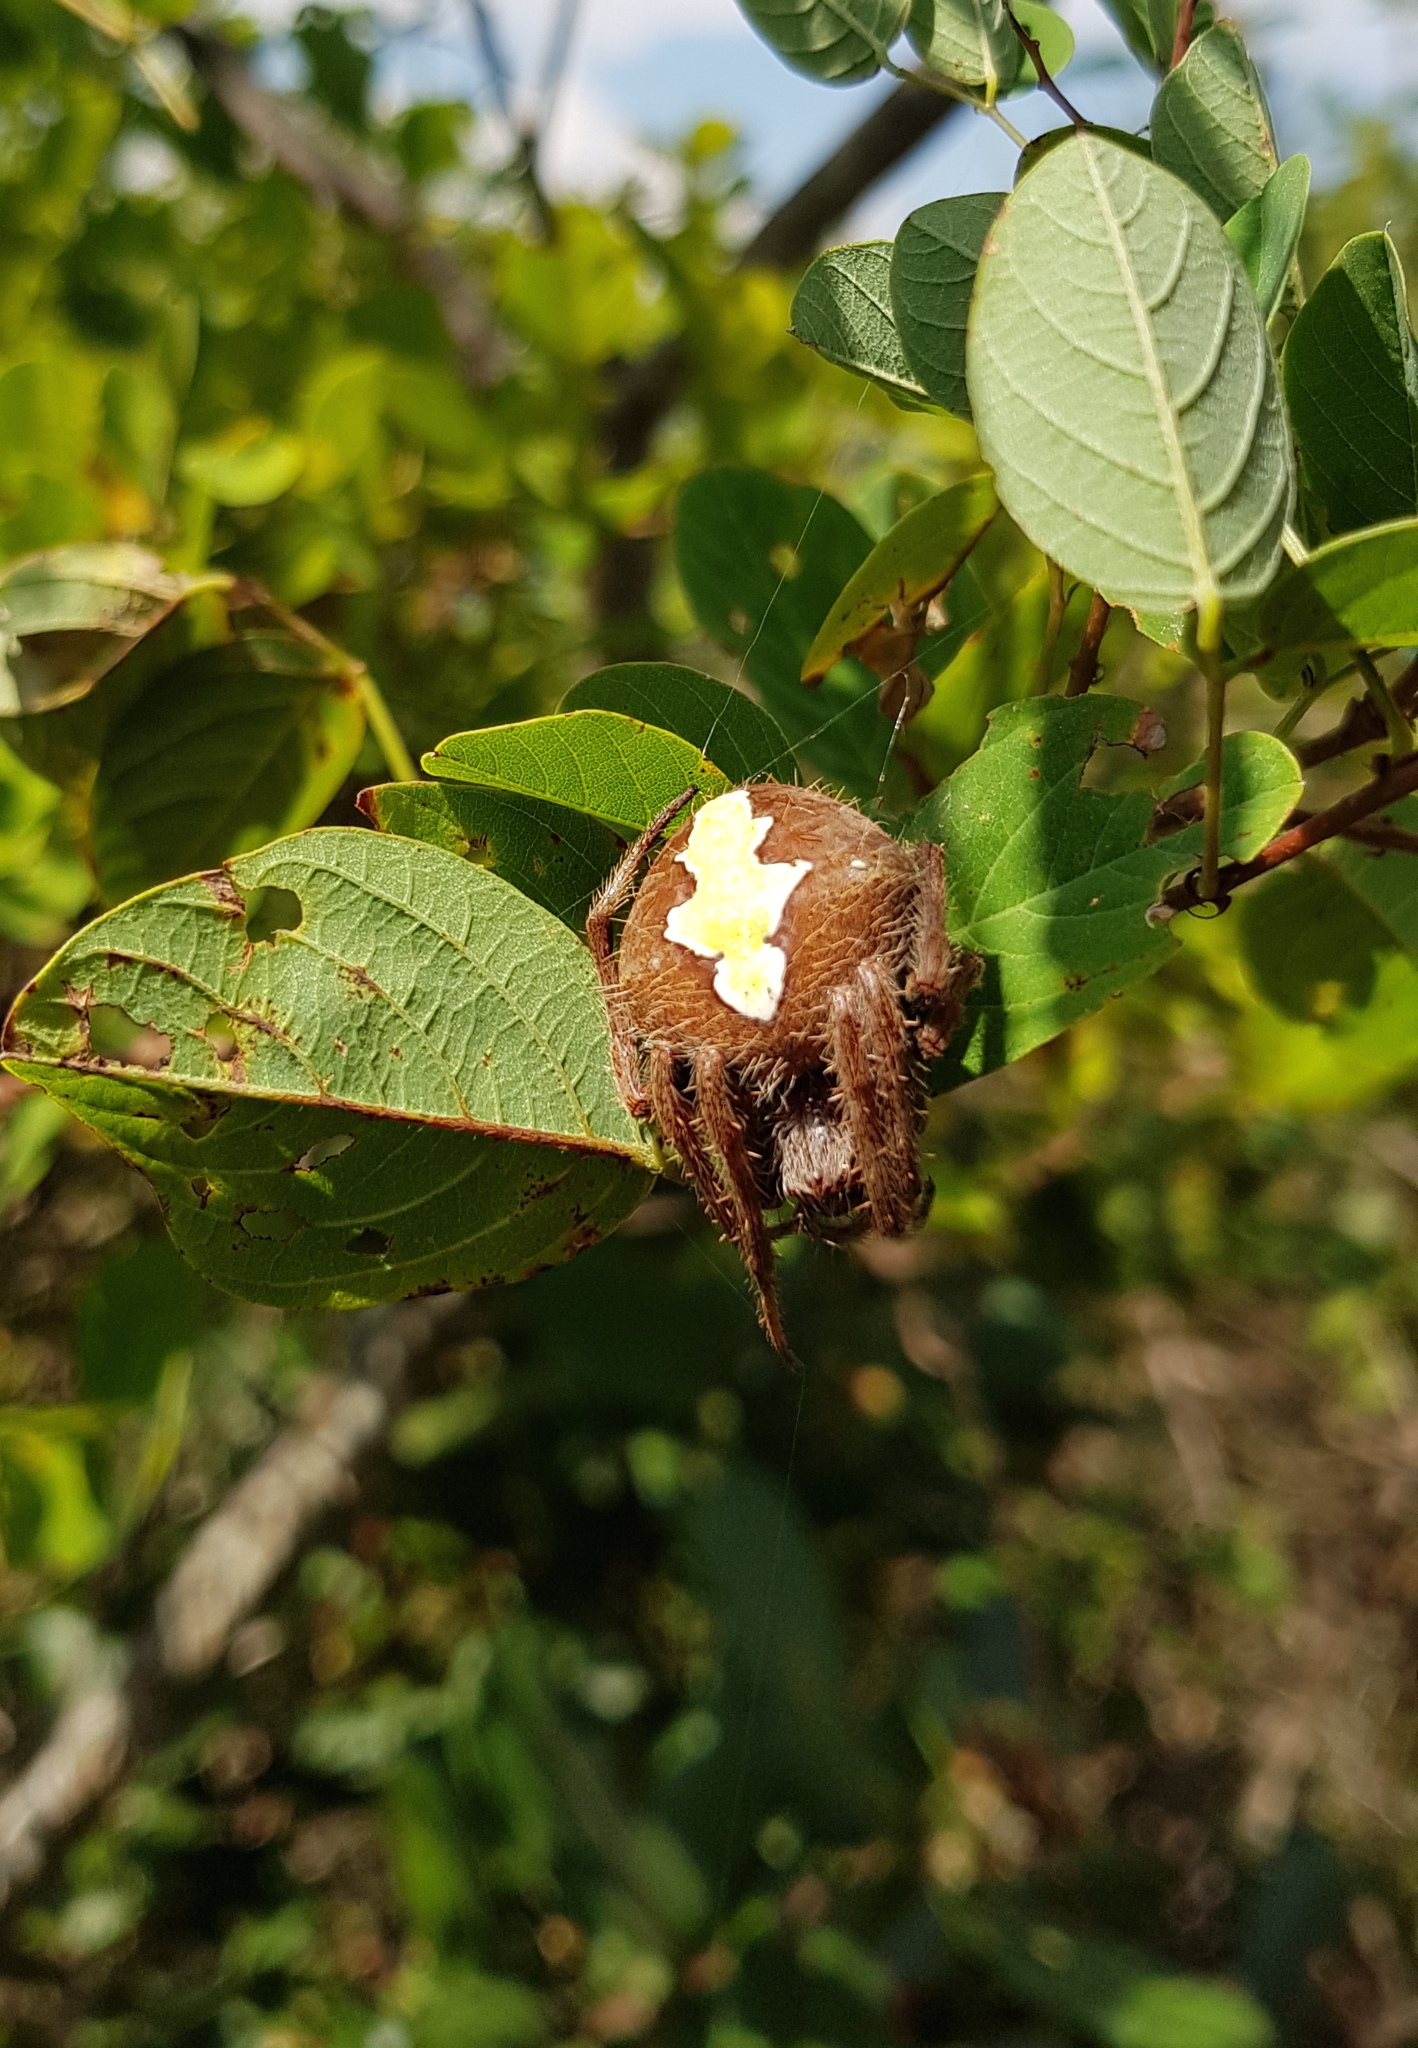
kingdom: Animalia
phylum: Arthropoda
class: Arachnida
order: Araneae
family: Araneidae
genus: Eriophora
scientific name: Eriophora ravilla
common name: Orb weavers
